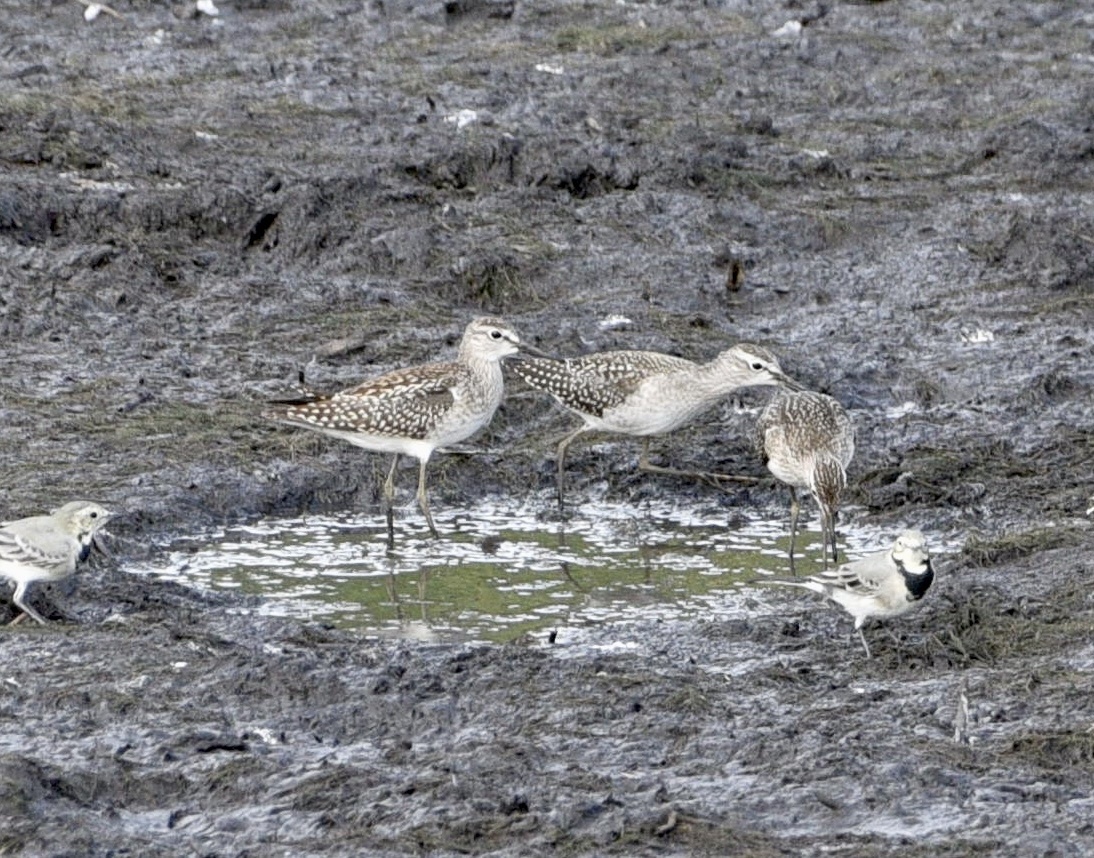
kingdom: Animalia
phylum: Chordata
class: Aves
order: Charadriiformes
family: Scolopacidae
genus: Tringa
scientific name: Tringa glareola
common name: Wood sandpiper
